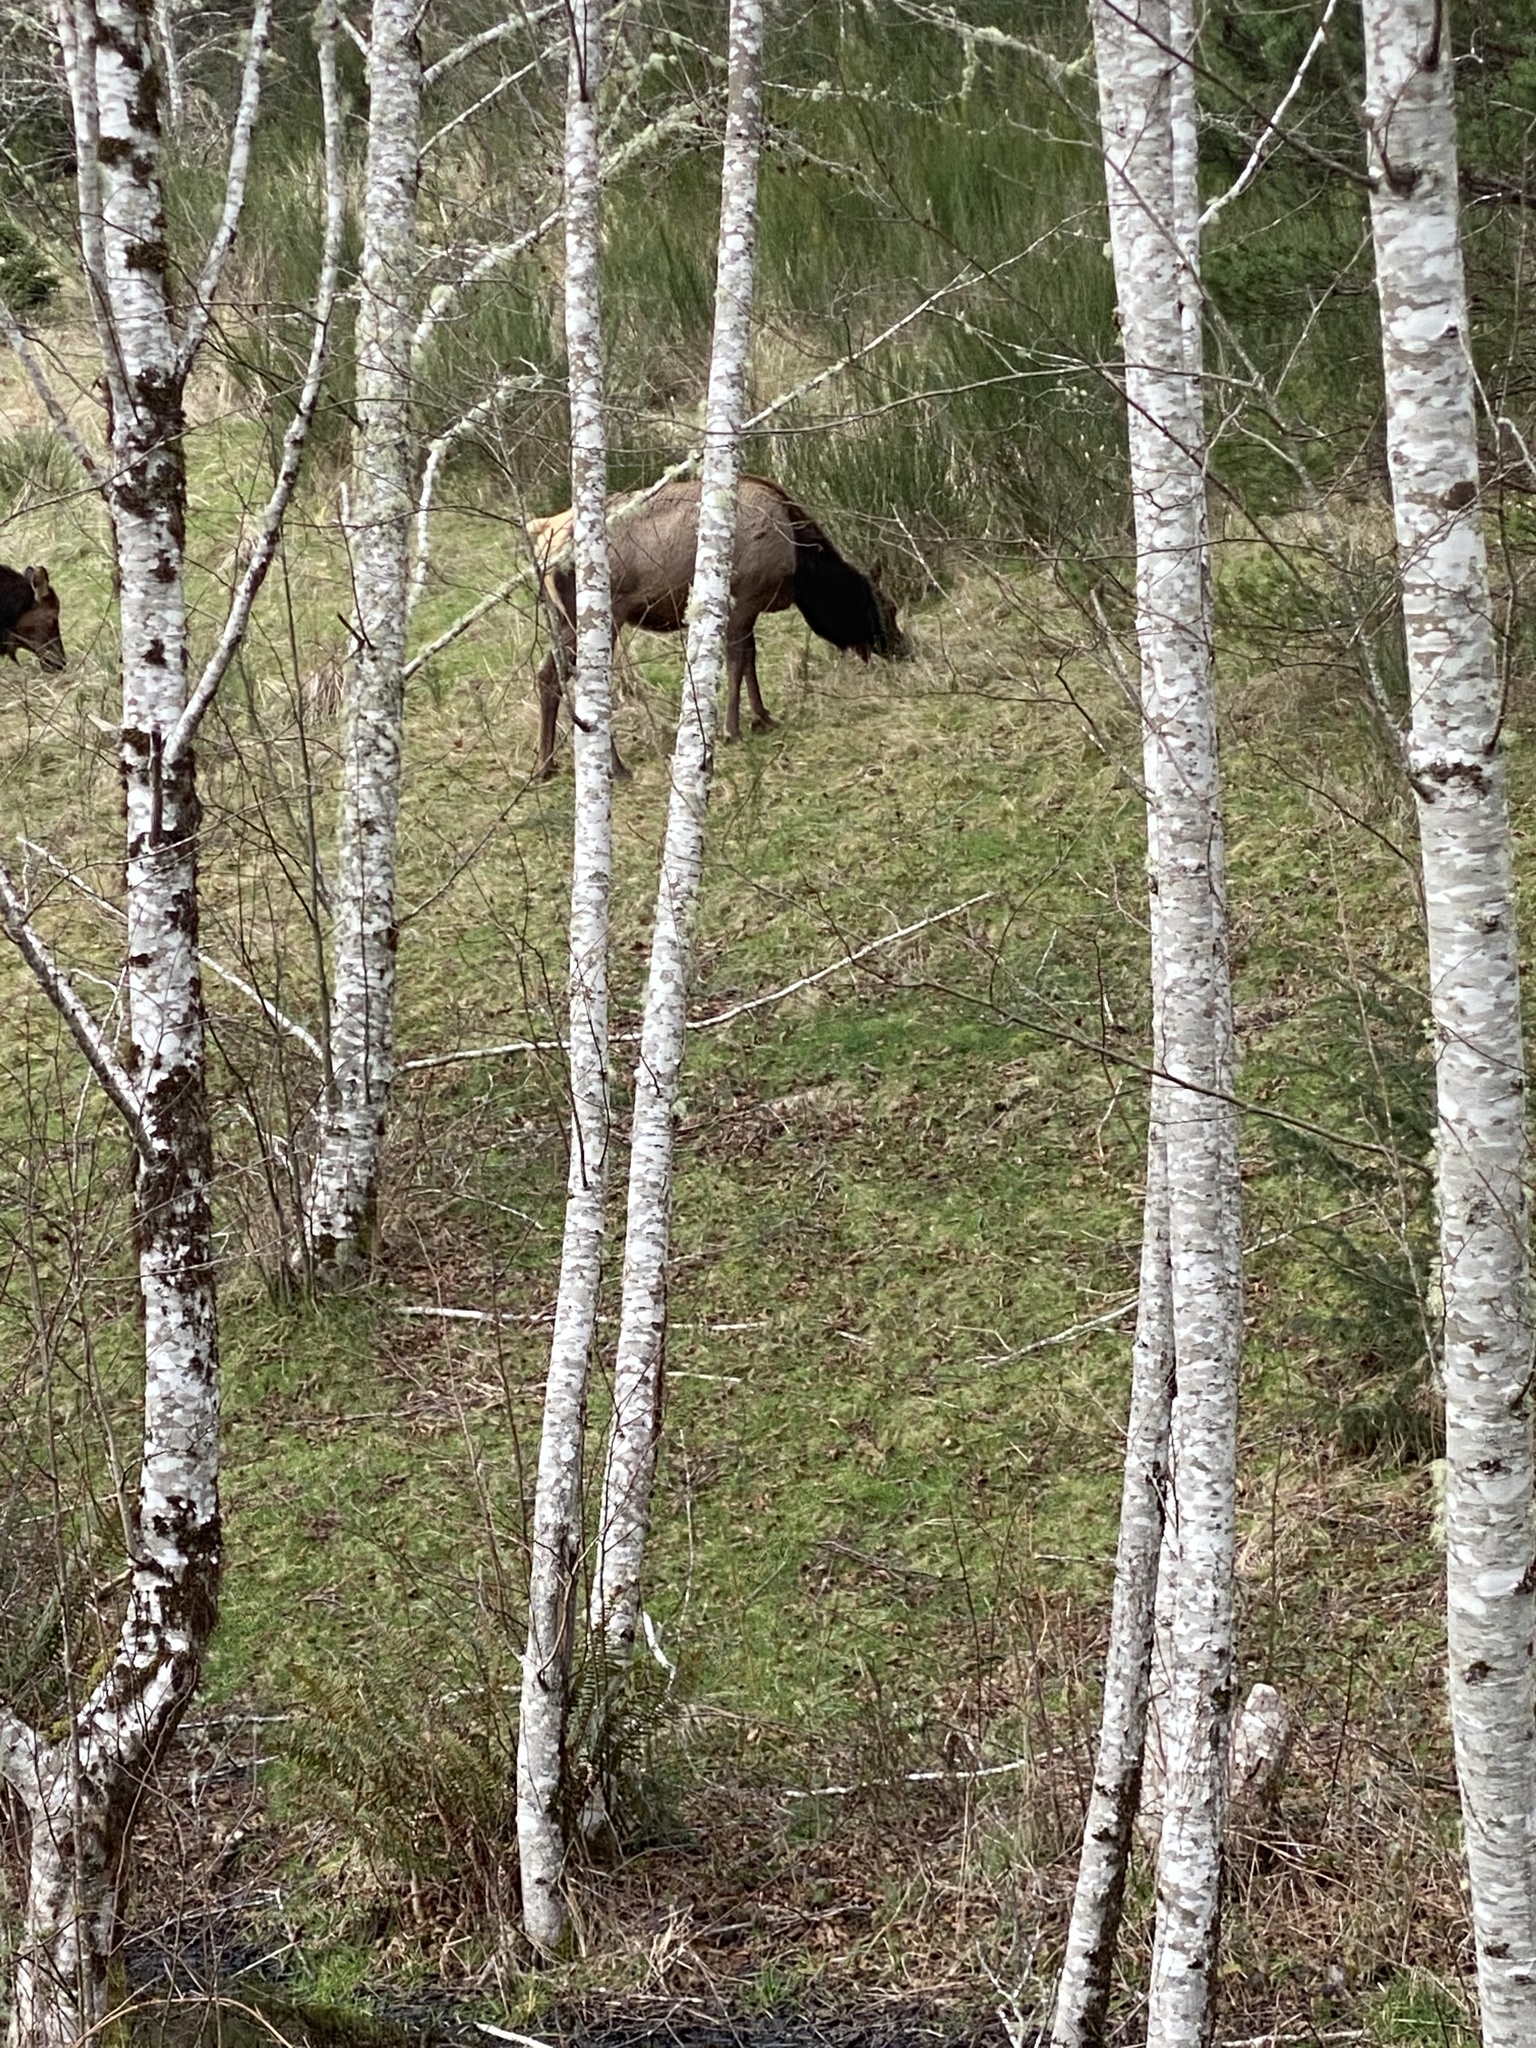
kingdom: Animalia
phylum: Chordata
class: Mammalia
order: Artiodactyla
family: Cervidae
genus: Cervus
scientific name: Cervus elaphus
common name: Red deer
